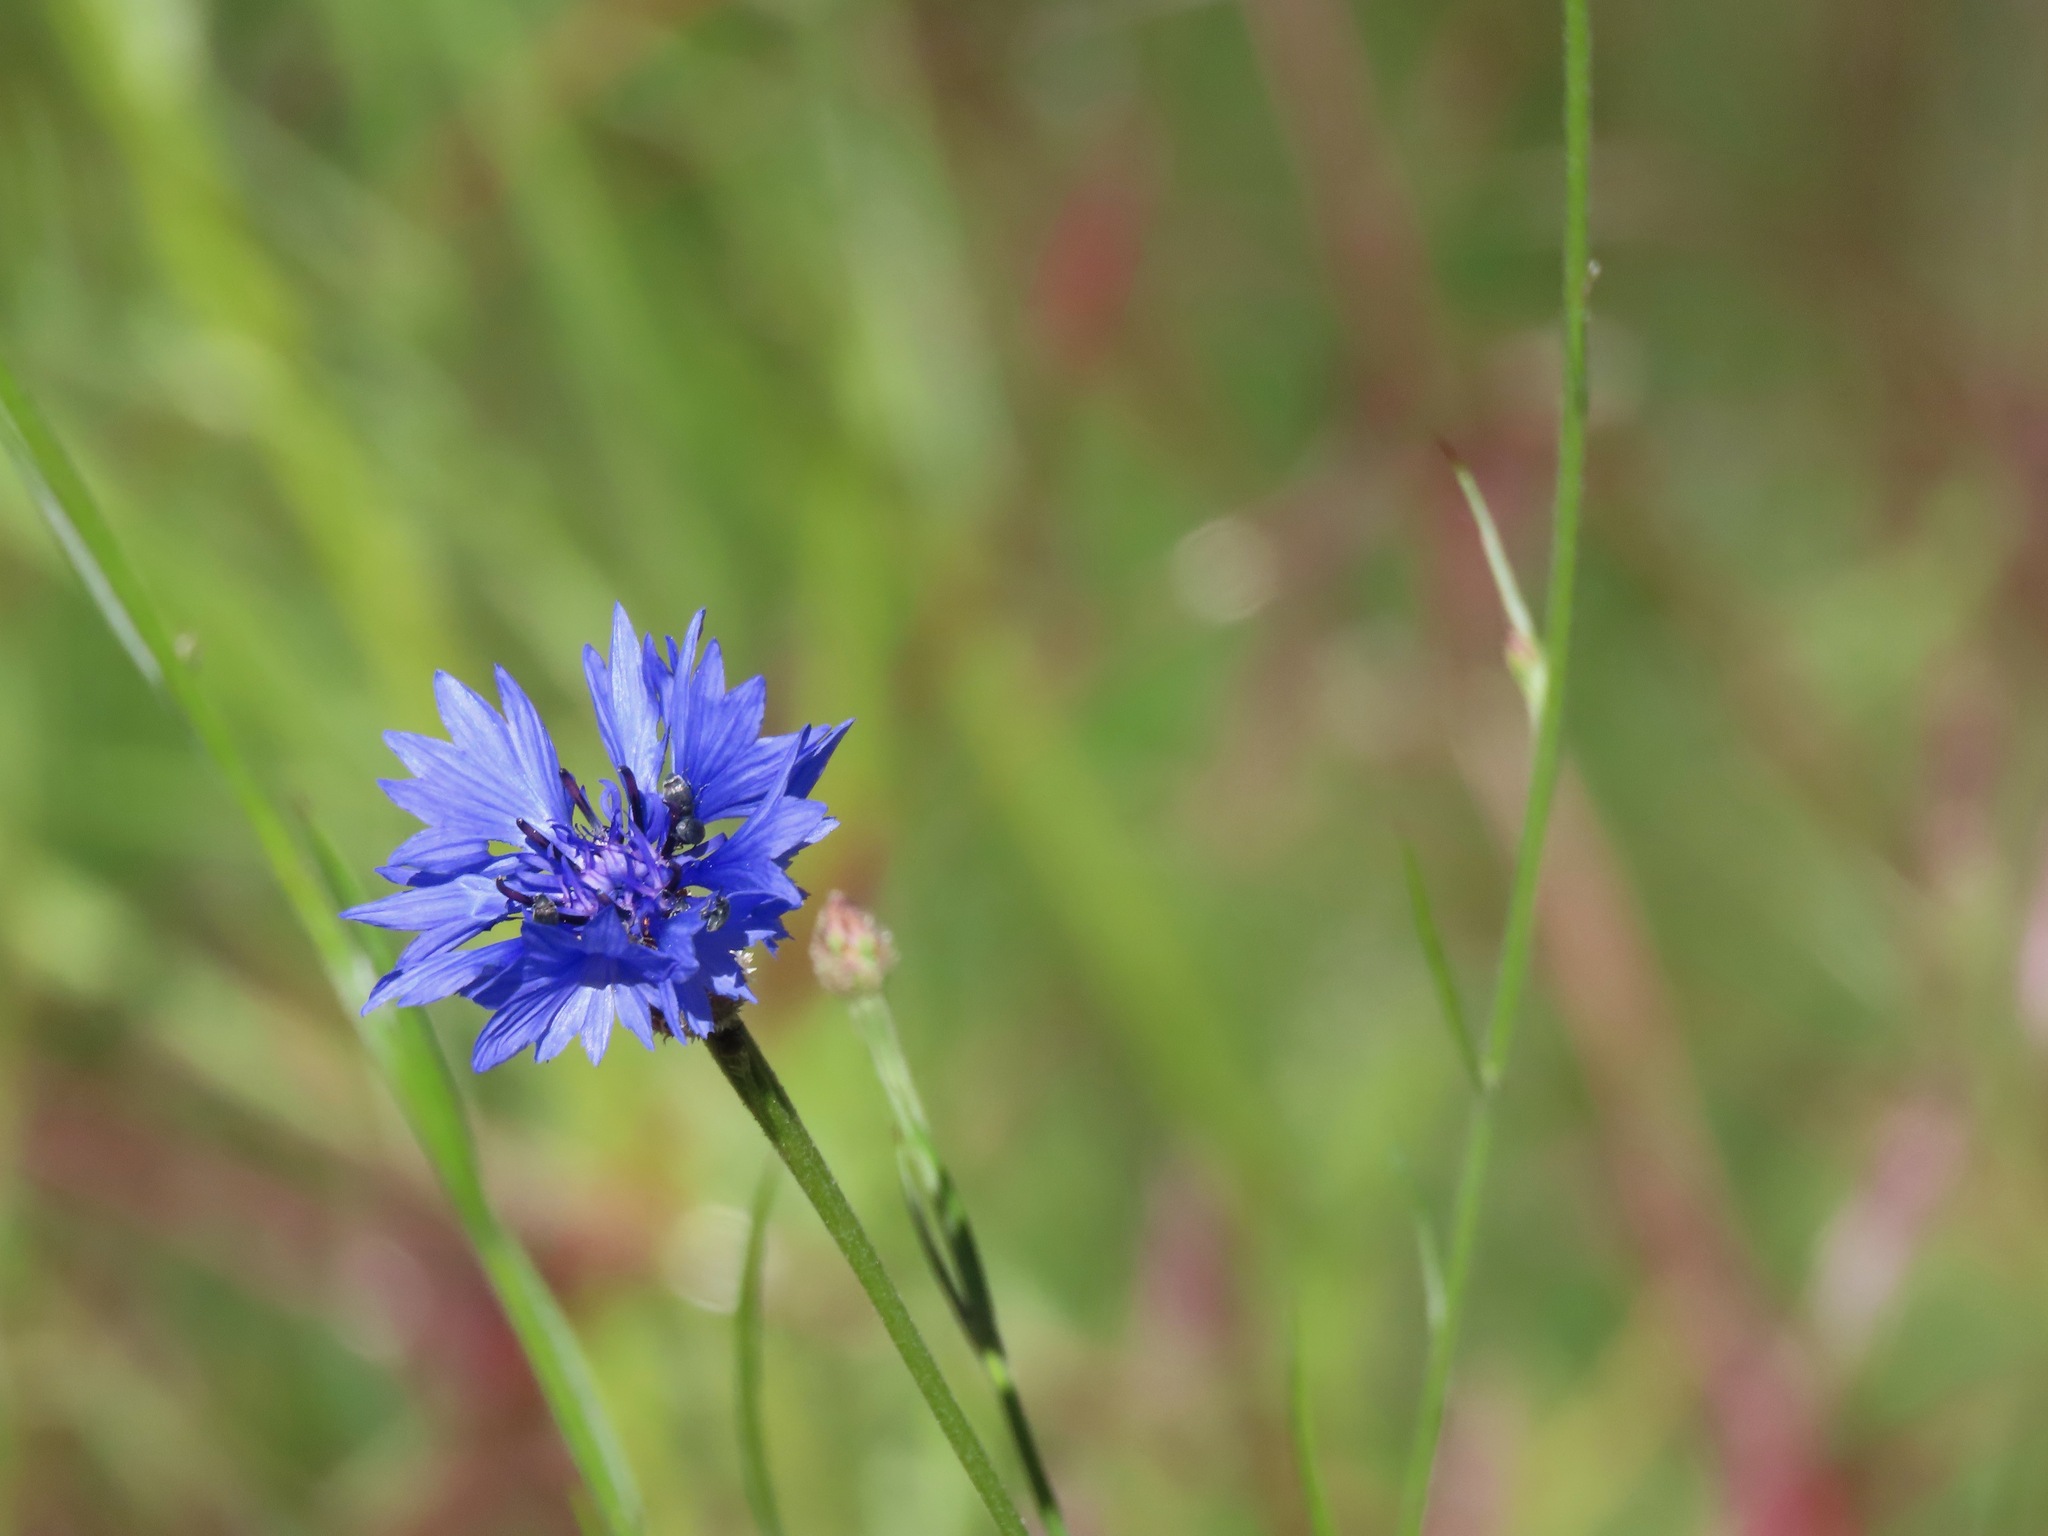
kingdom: Plantae
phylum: Tracheophyta
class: Magnoliopsida
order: Asterales
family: Asteraceae
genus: Centaurea
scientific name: Centaurea cyanus
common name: Cornflower
